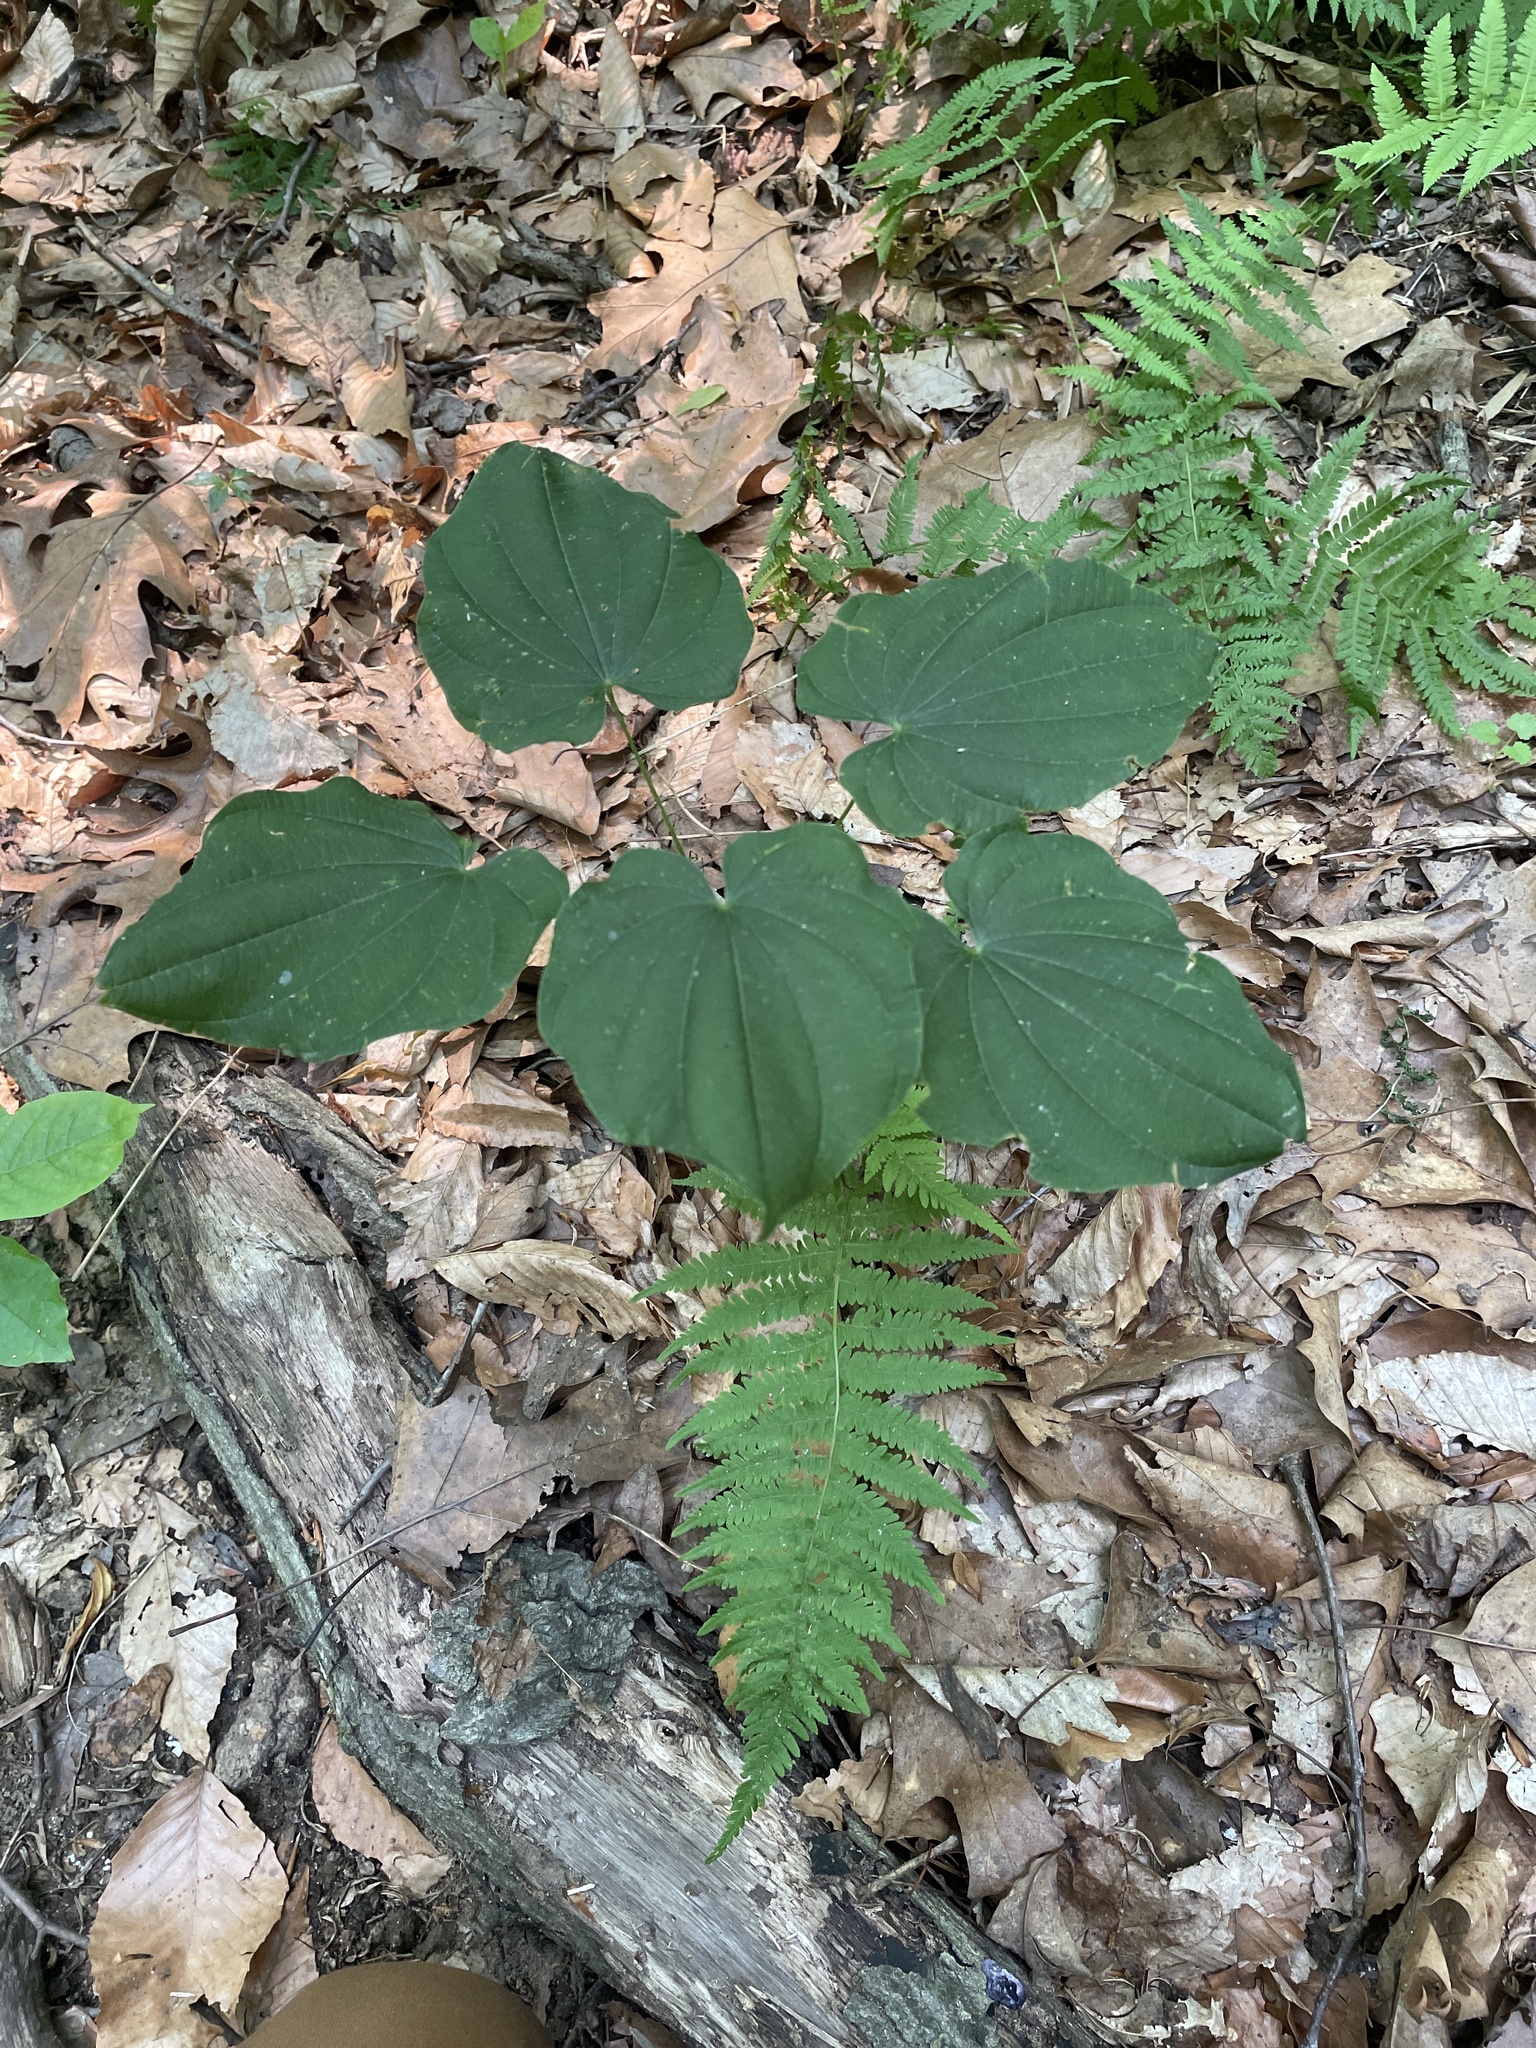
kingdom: Plantae
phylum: Tracheophyta
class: Liliopsida
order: Dioscoreales
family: Dioscoreaceae
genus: Dioscorea
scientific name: Dioscorea villosa
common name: Wild yam
